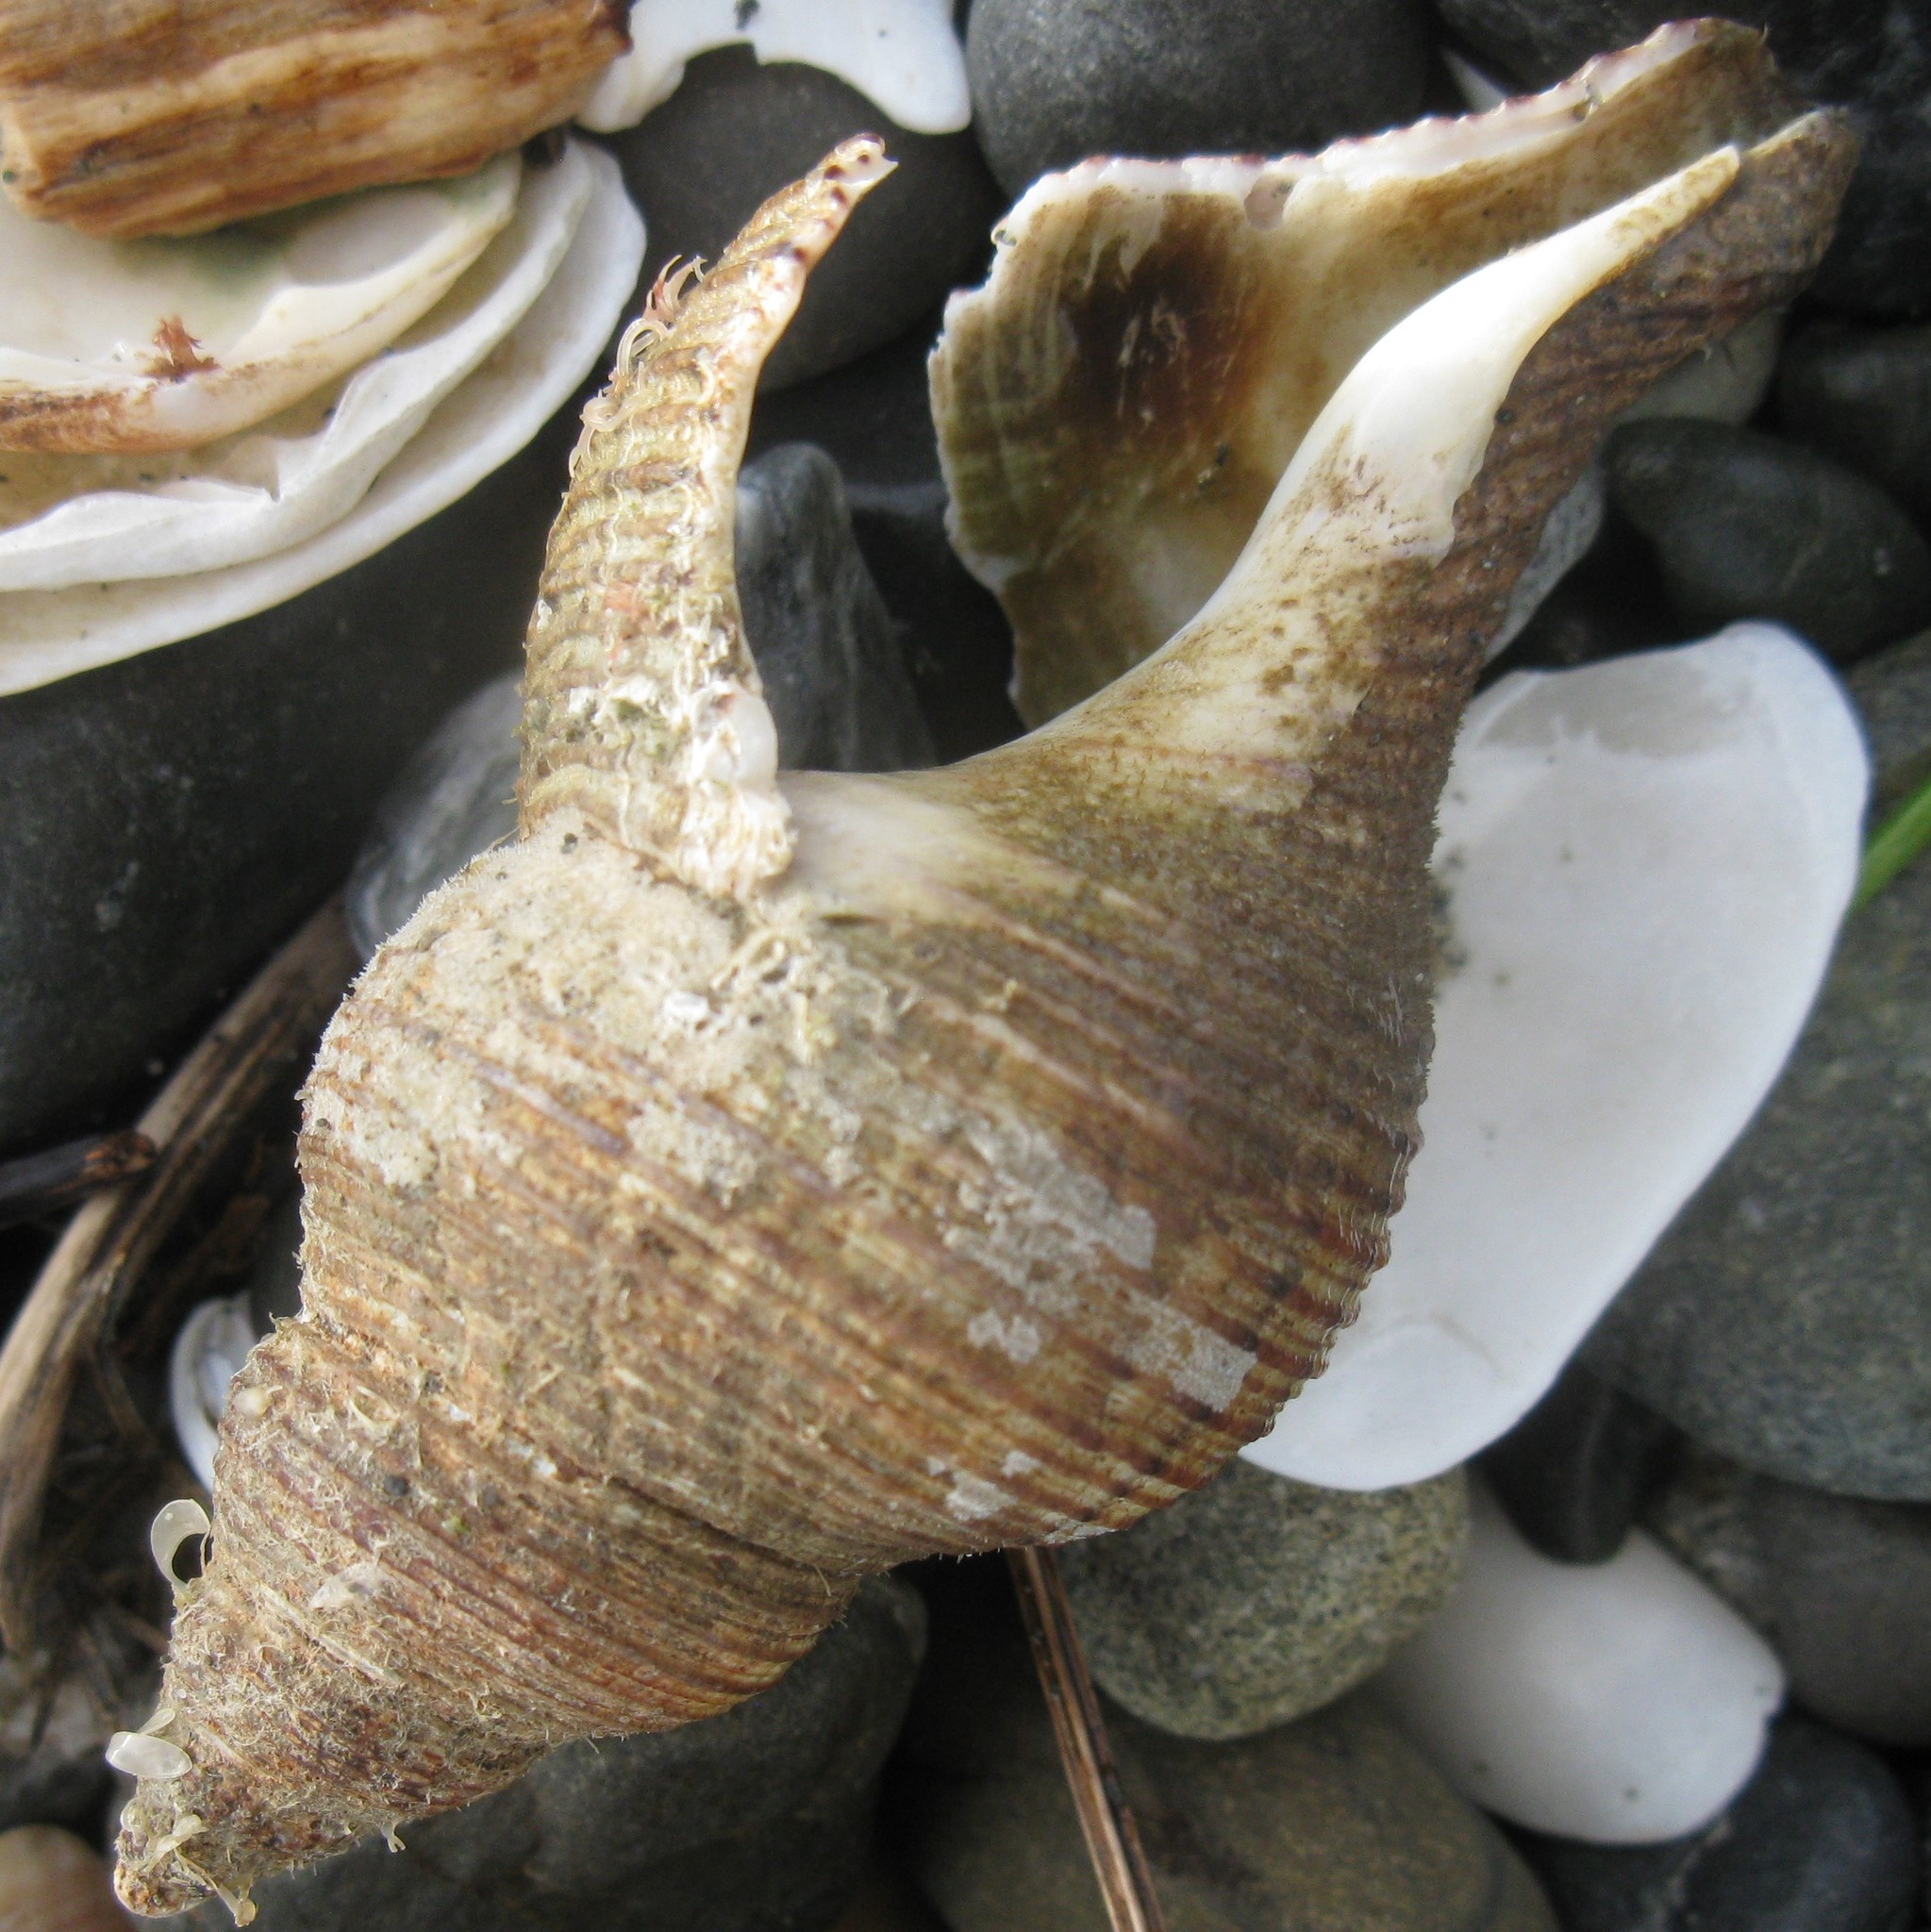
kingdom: Animalia
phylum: Mollusca
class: Gastropoda
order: Neogastropoda
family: Austrosiphonidae
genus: Penion
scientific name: Penion sulcatus
